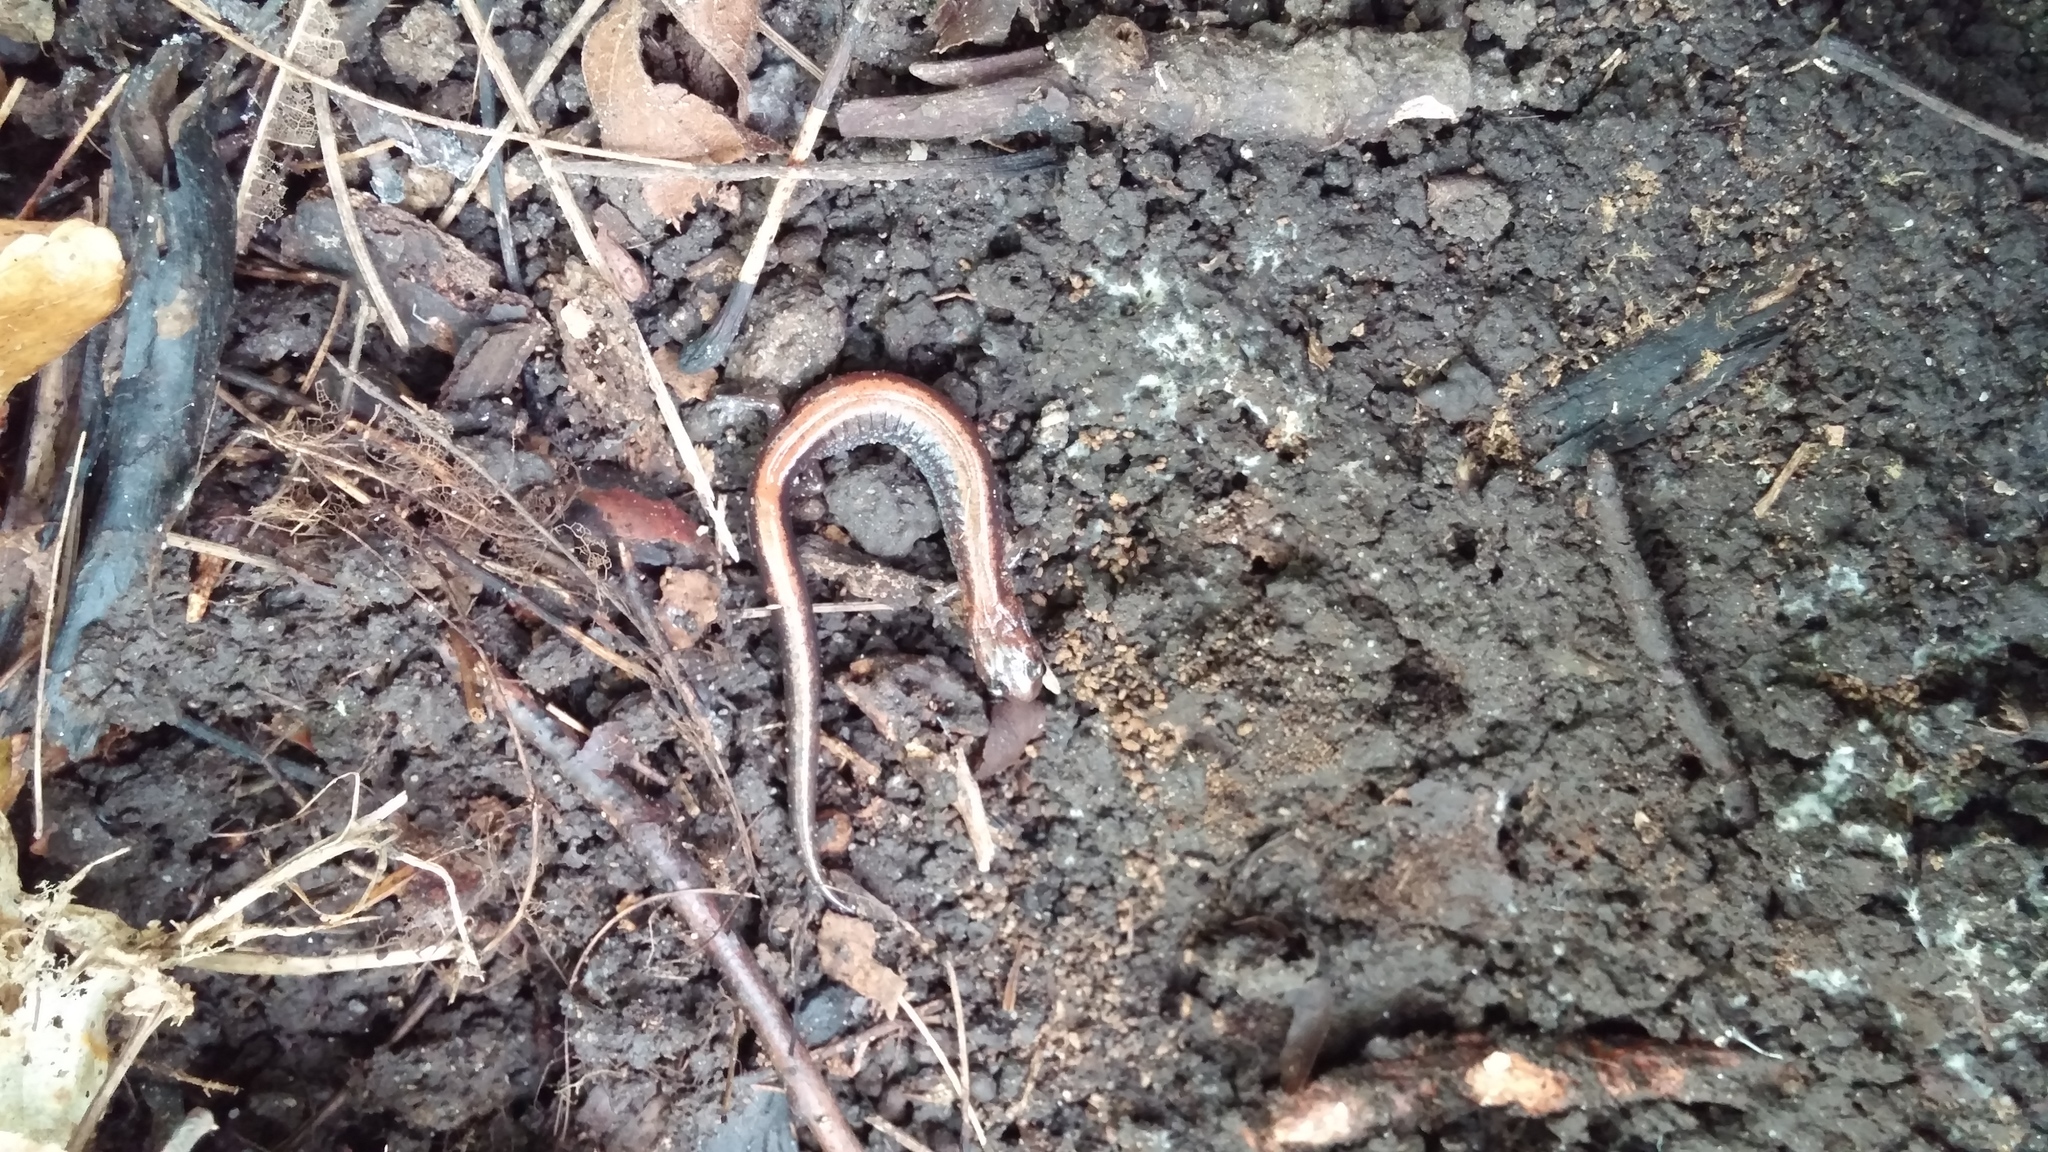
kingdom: Animalia
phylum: Chordata
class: Amphibia
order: Caudata
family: Plethodontidae
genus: Plethodon
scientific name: Plethodon cinereus
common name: Redback salamander
